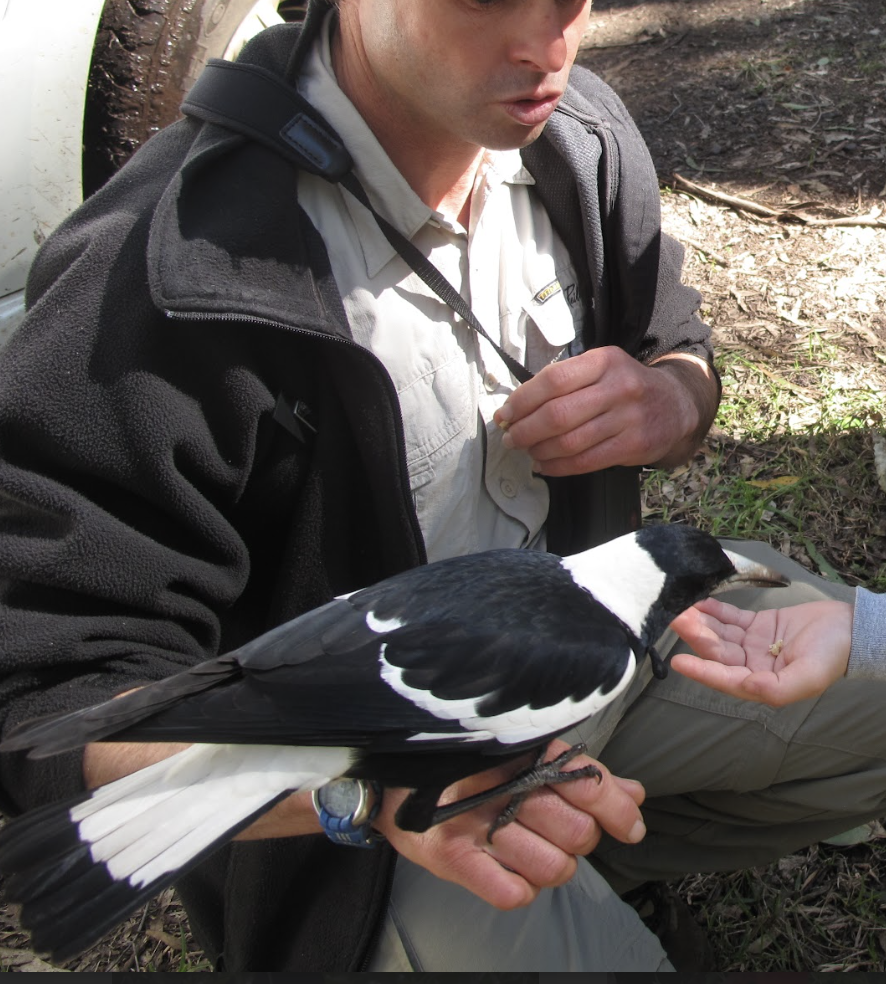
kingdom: Animalia
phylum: Chordata
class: Aves
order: Passeriformes
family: Cracticidae
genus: Gymnorhina
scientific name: Gymnorhina tibicen
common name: Australian magpie
